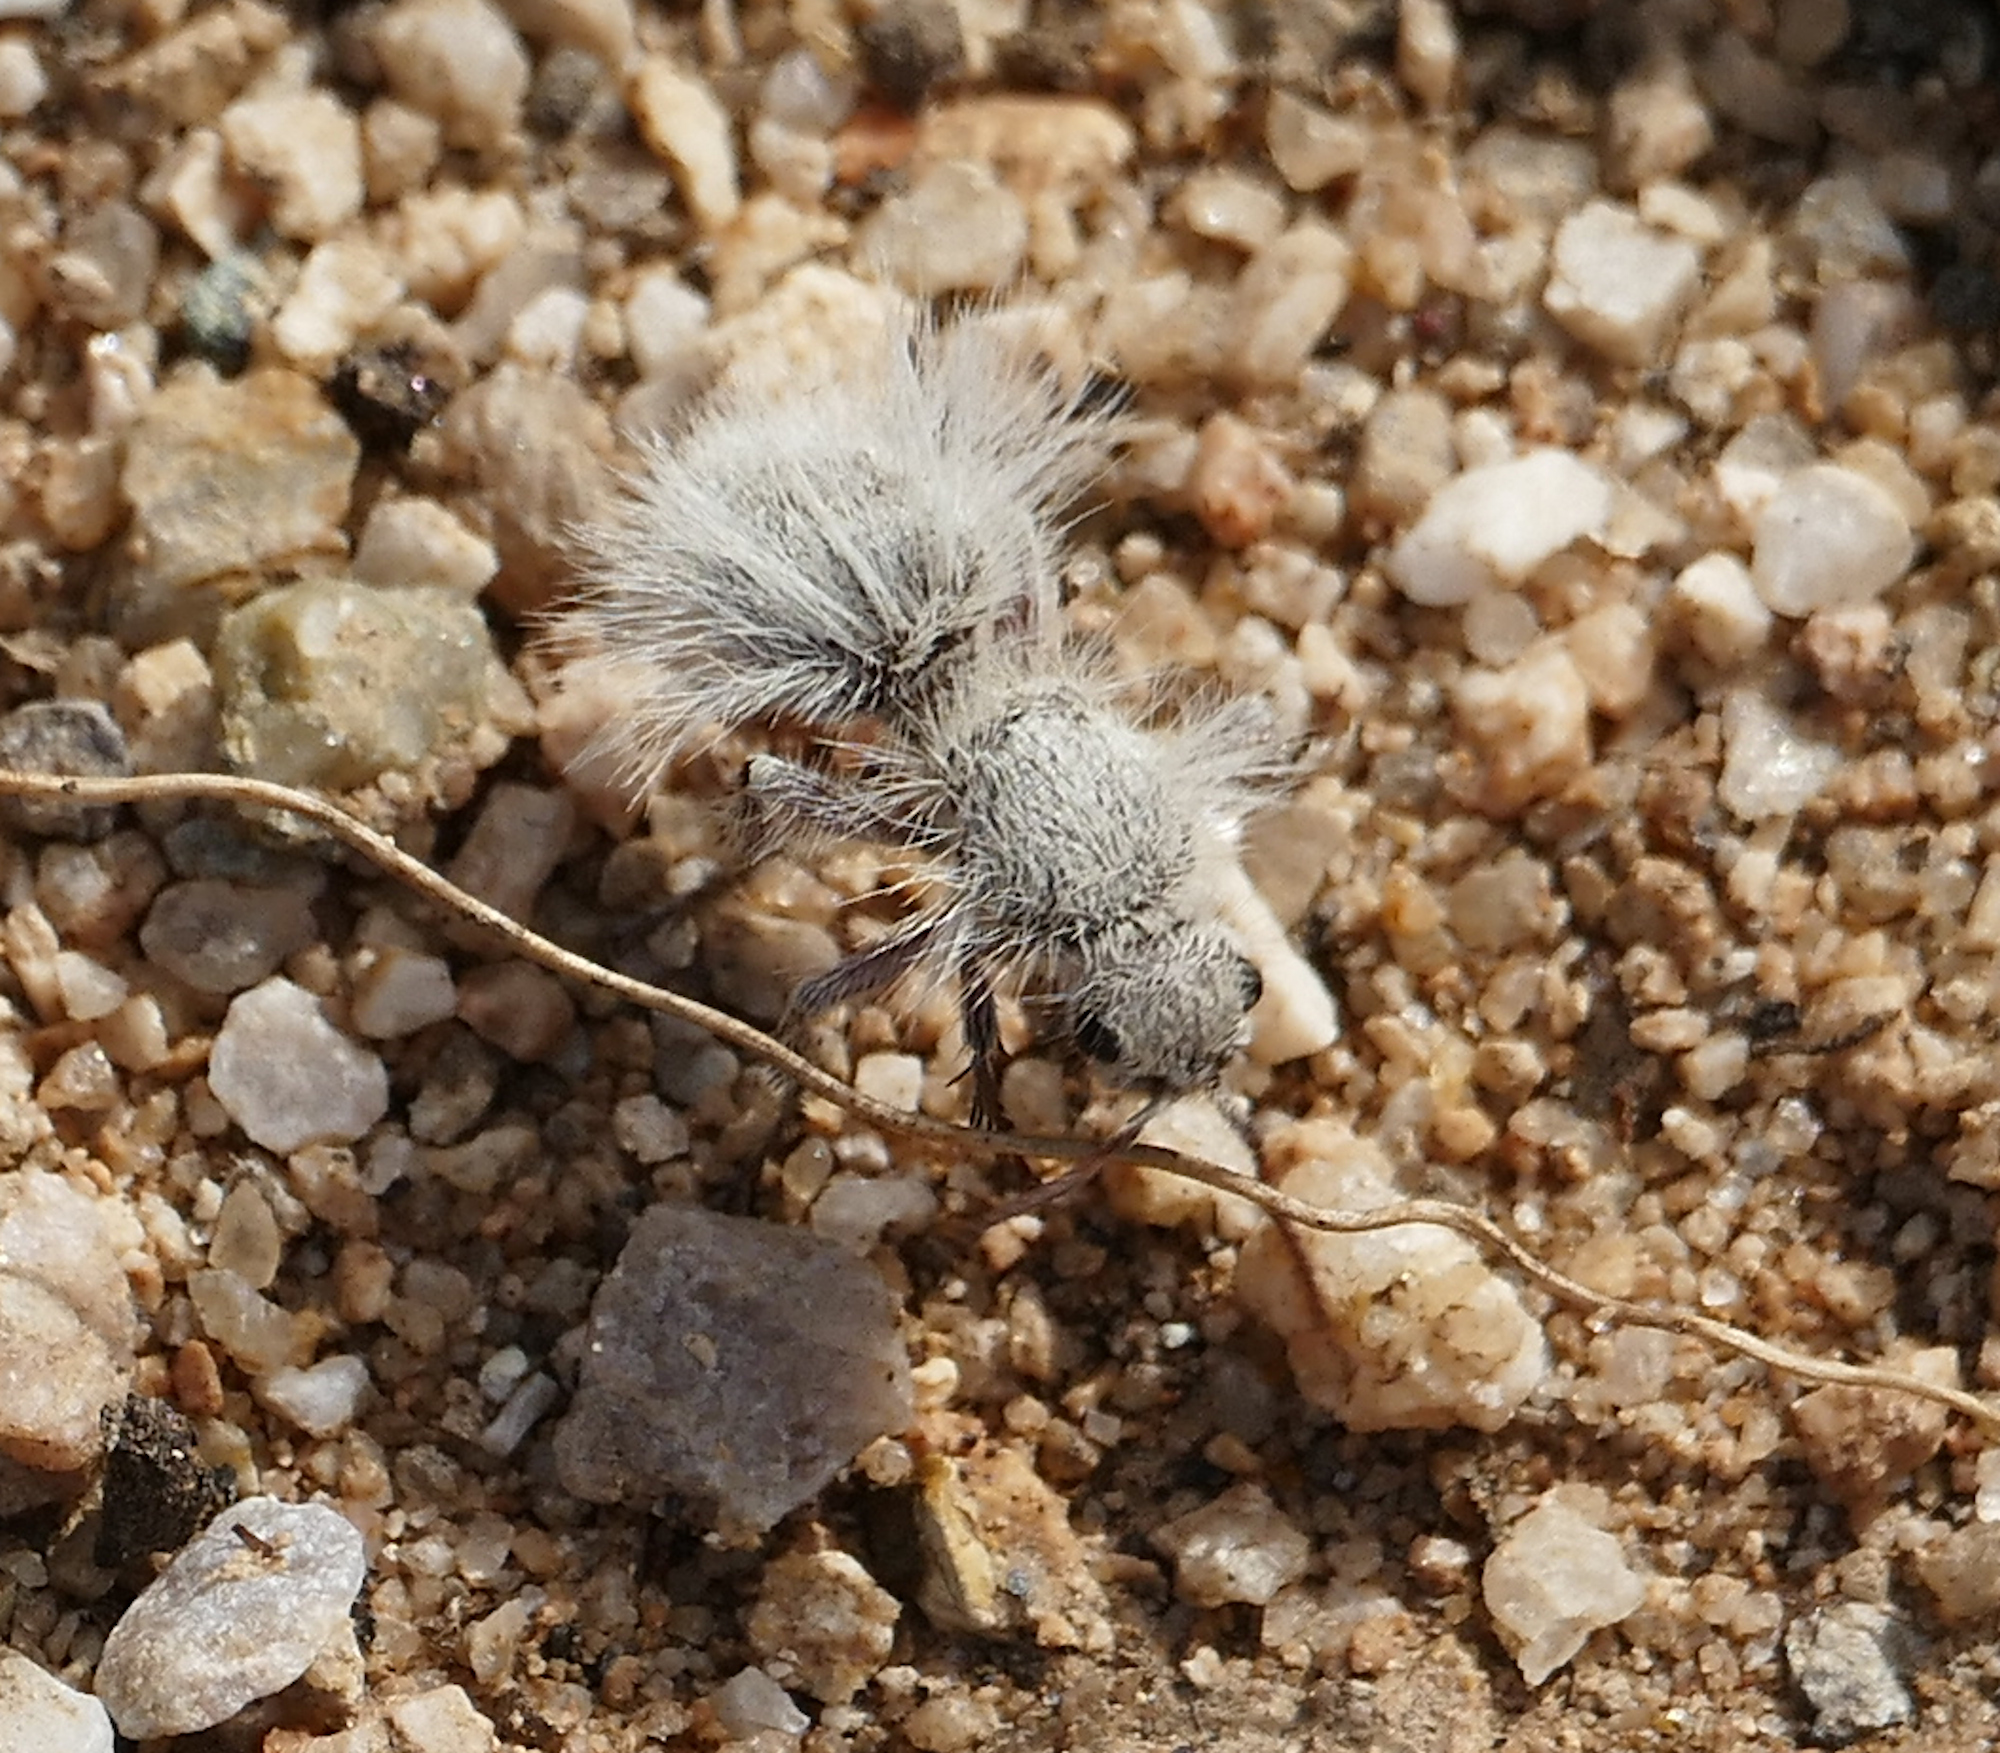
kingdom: Animalia
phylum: Arthropoda
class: Insecta
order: Hymenoptera
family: Mutillidae
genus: Dasymutilla
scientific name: Dasymutilla gloriosa
